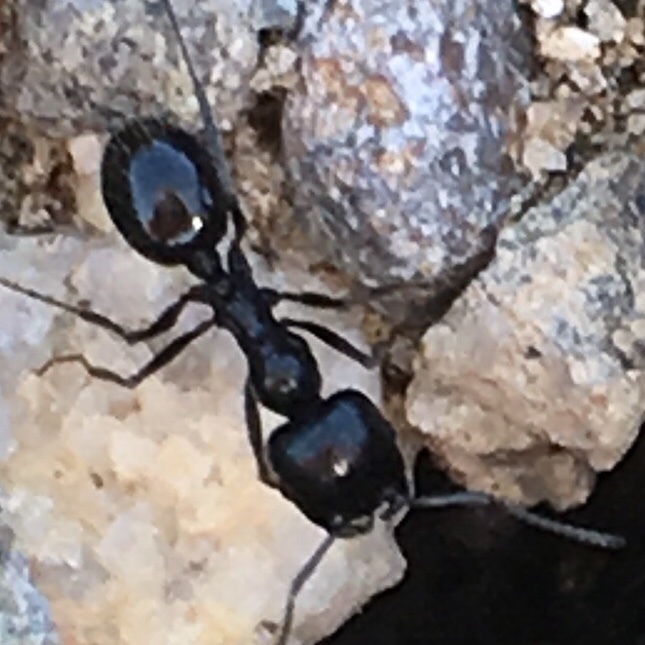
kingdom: Animalia
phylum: Arthropoda
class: Insecta
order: Hymenoptera
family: Formicidae
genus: Messor
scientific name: Messor pergandei
